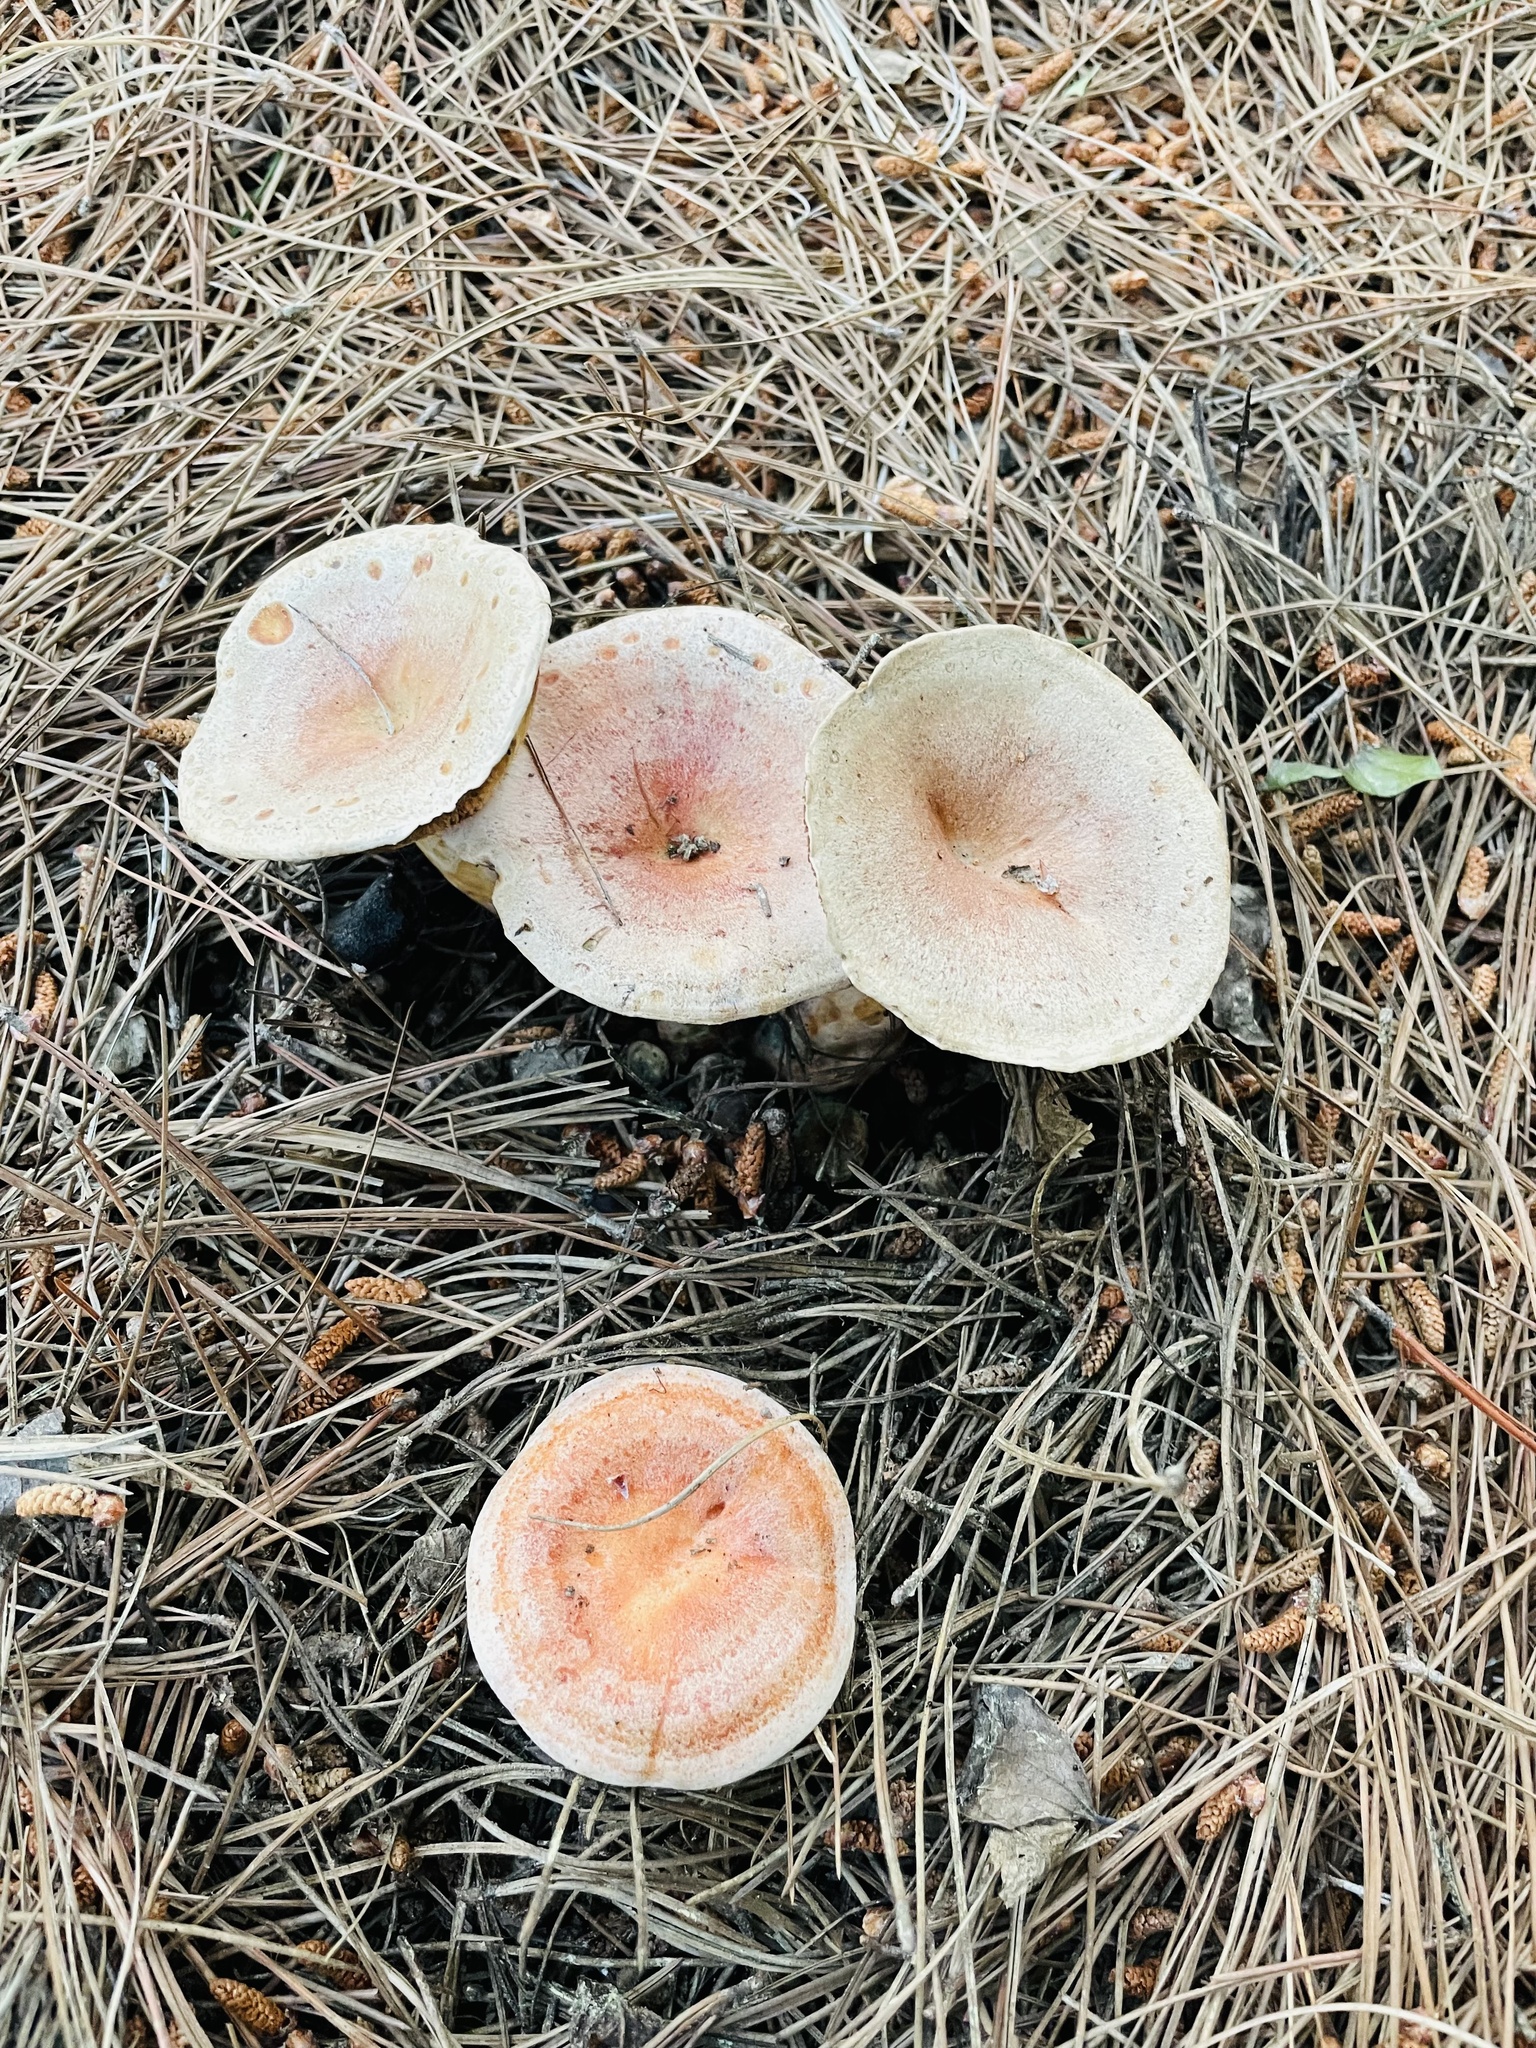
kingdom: Fungi
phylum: Basidiomycota
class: Agaricomycetes
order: Russulales
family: Russulaceae
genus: Lactarius
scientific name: Lactarius deliciosus
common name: Saffron milk-cap
